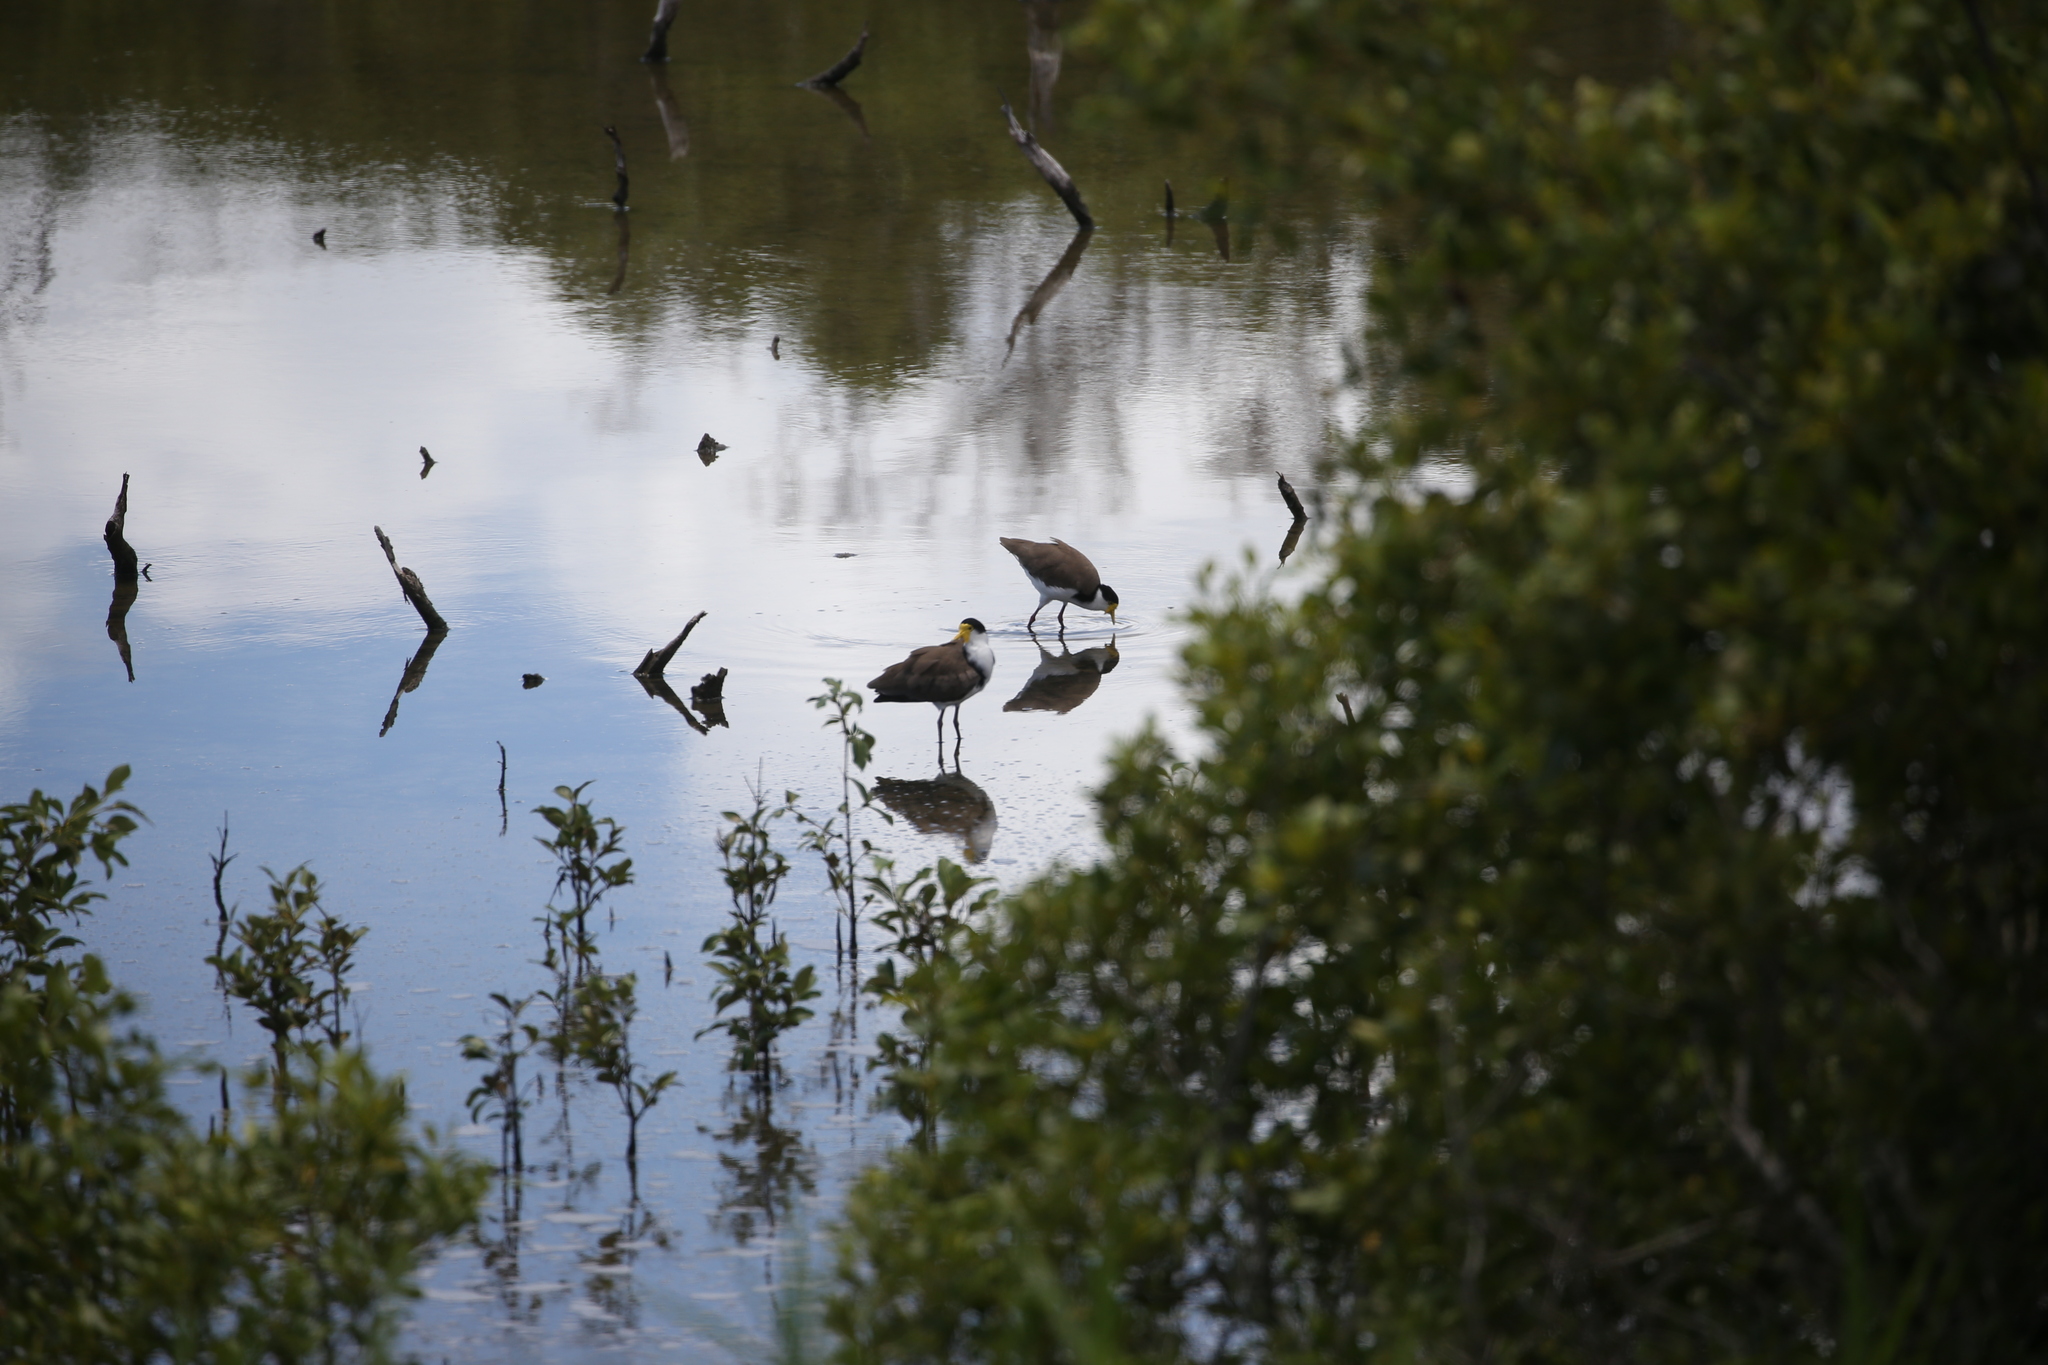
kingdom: Animalia
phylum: Chordata
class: Aves
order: Charadriiformes
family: Charadriidae
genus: Vanellus
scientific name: Vanellus miles
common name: Masked lapwing
